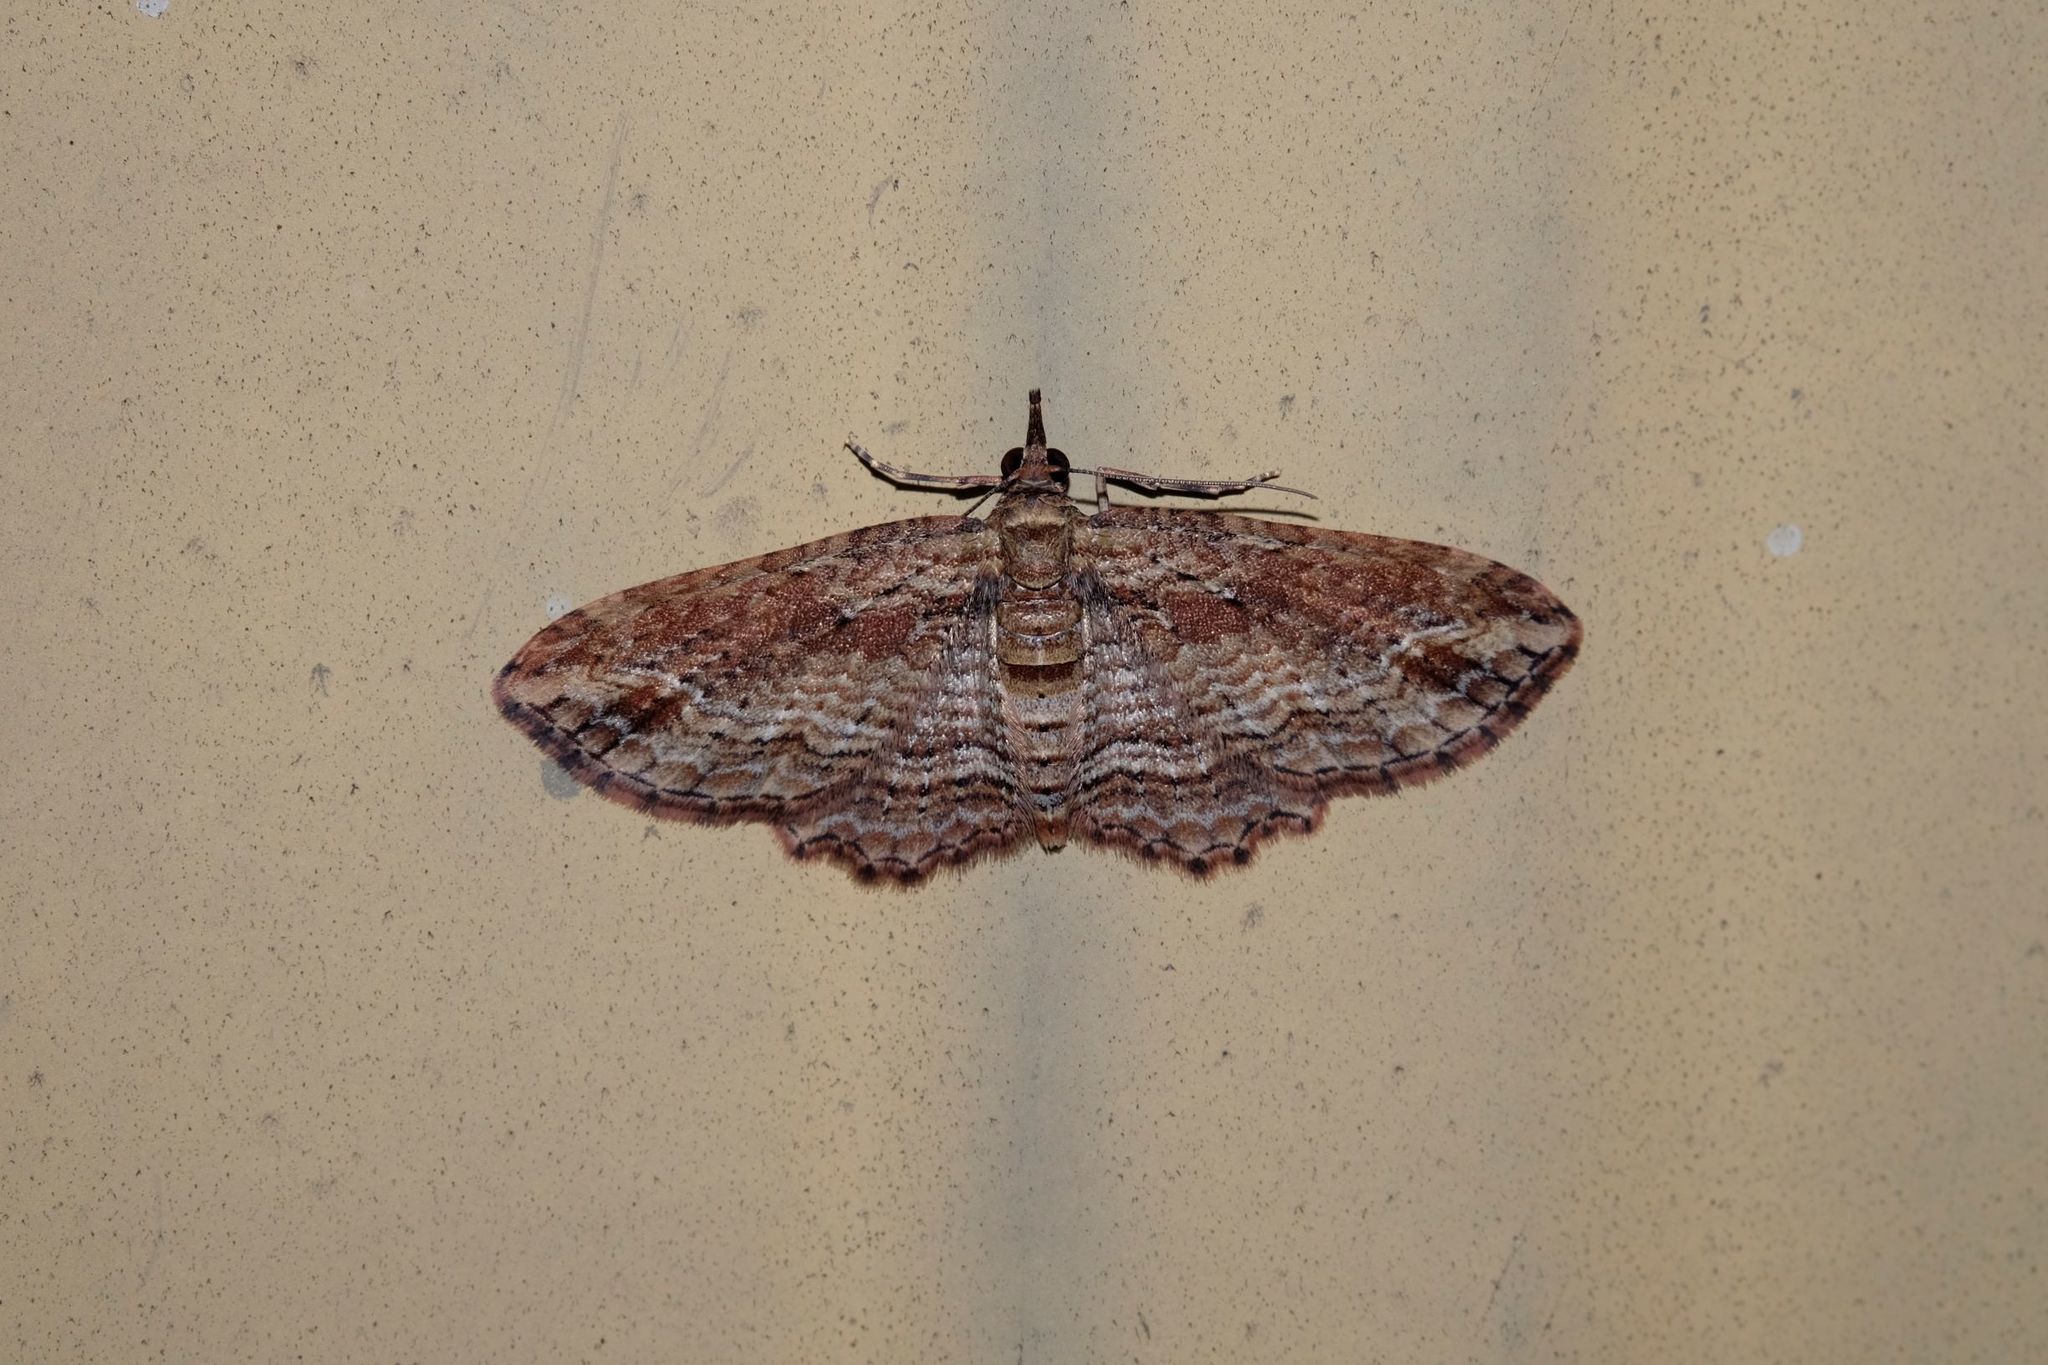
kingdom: Animalia
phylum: Arthropoda
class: Insecta
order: Lepidoptera
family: Geometridae
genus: Chloroclystis
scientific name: Chloroclystis filata
